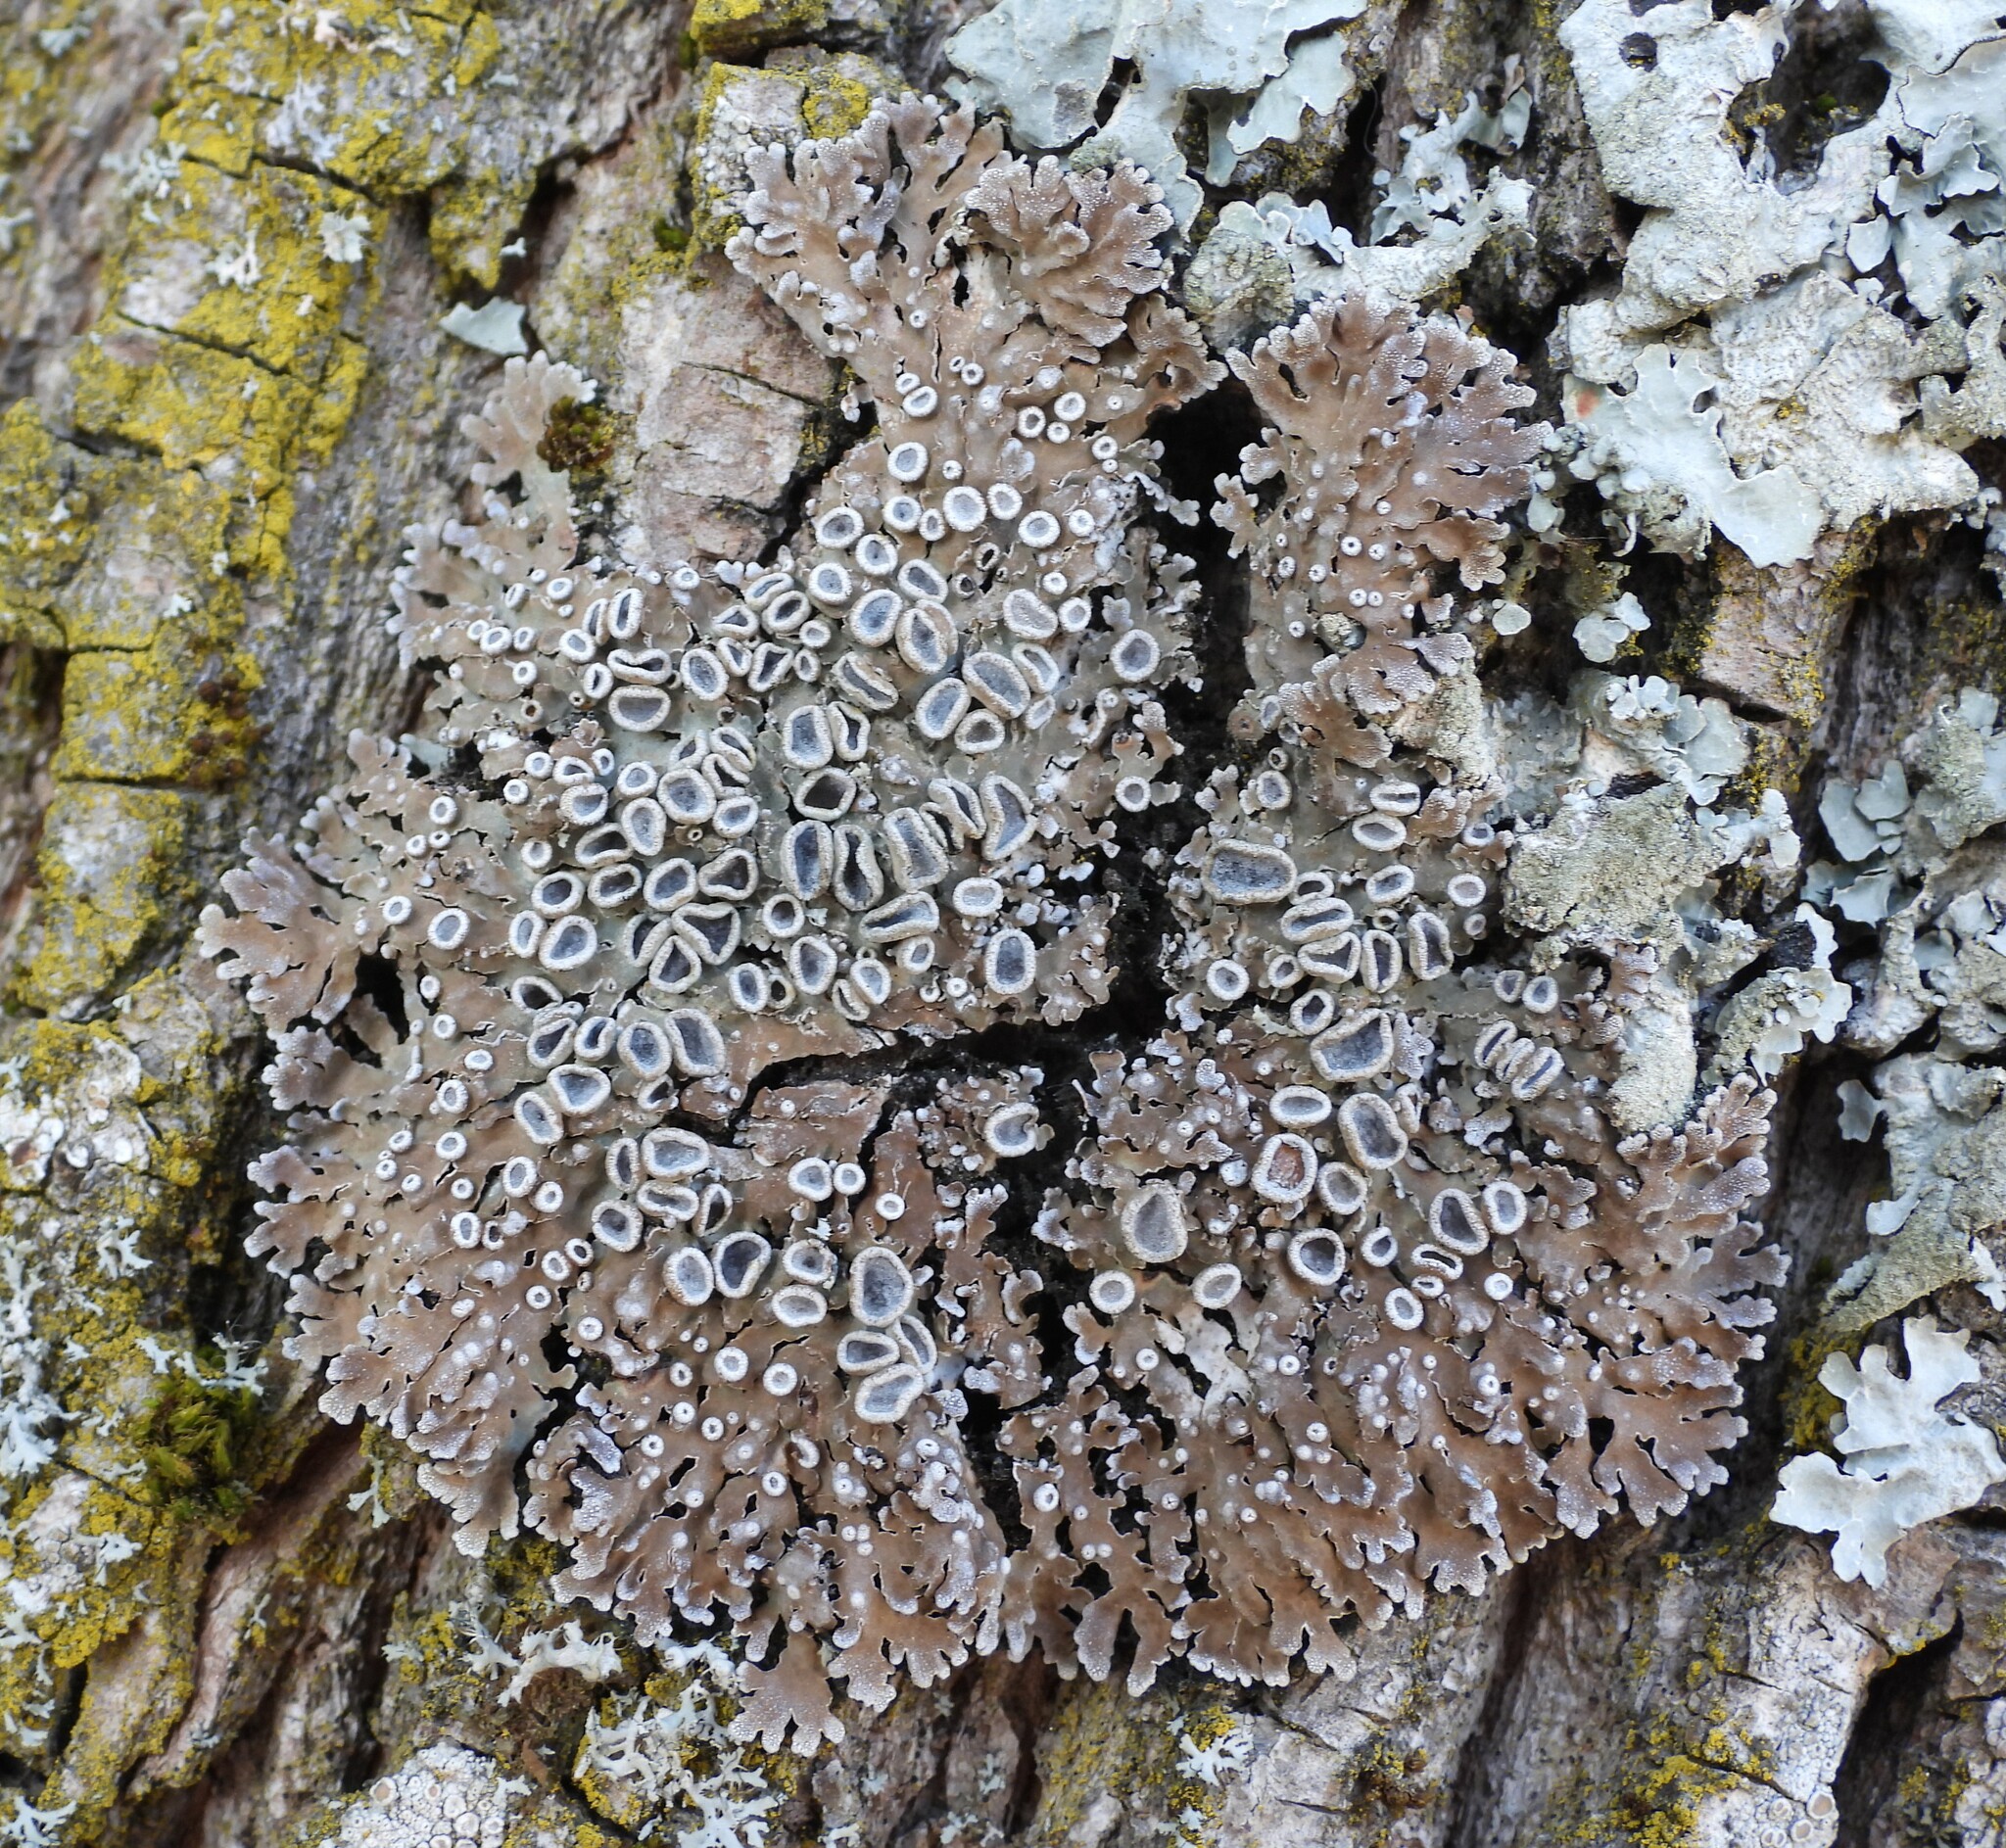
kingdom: Fungi
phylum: Ascomycota
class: Lecanoromycetes
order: Caliciales
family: Physciaceae
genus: Physconia
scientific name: Physconia distorta
